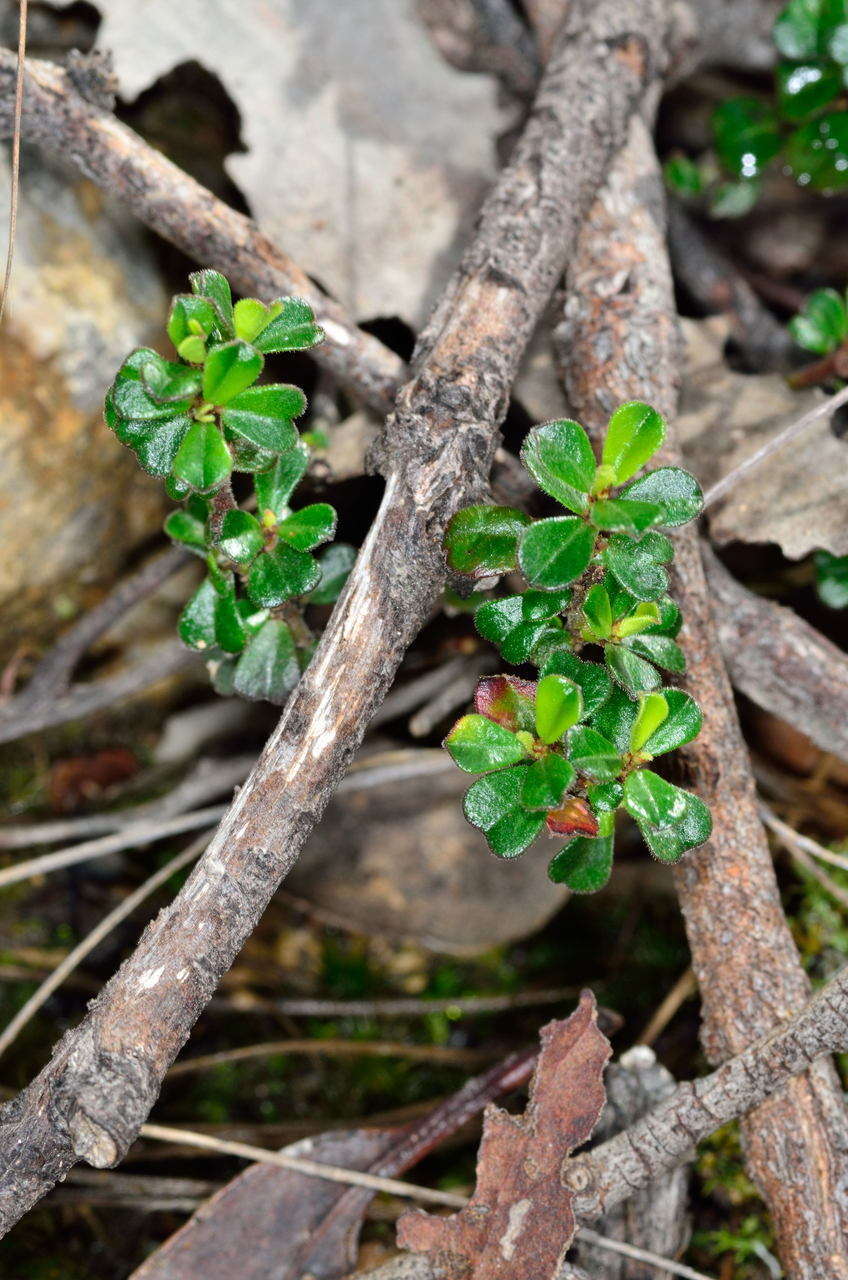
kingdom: Plantae
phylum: Tracheophyta
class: Magnoliopsida
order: Malpighiales
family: Phyllanthaceae
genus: Phyllanthus
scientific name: Phyllanthus hirtellus
